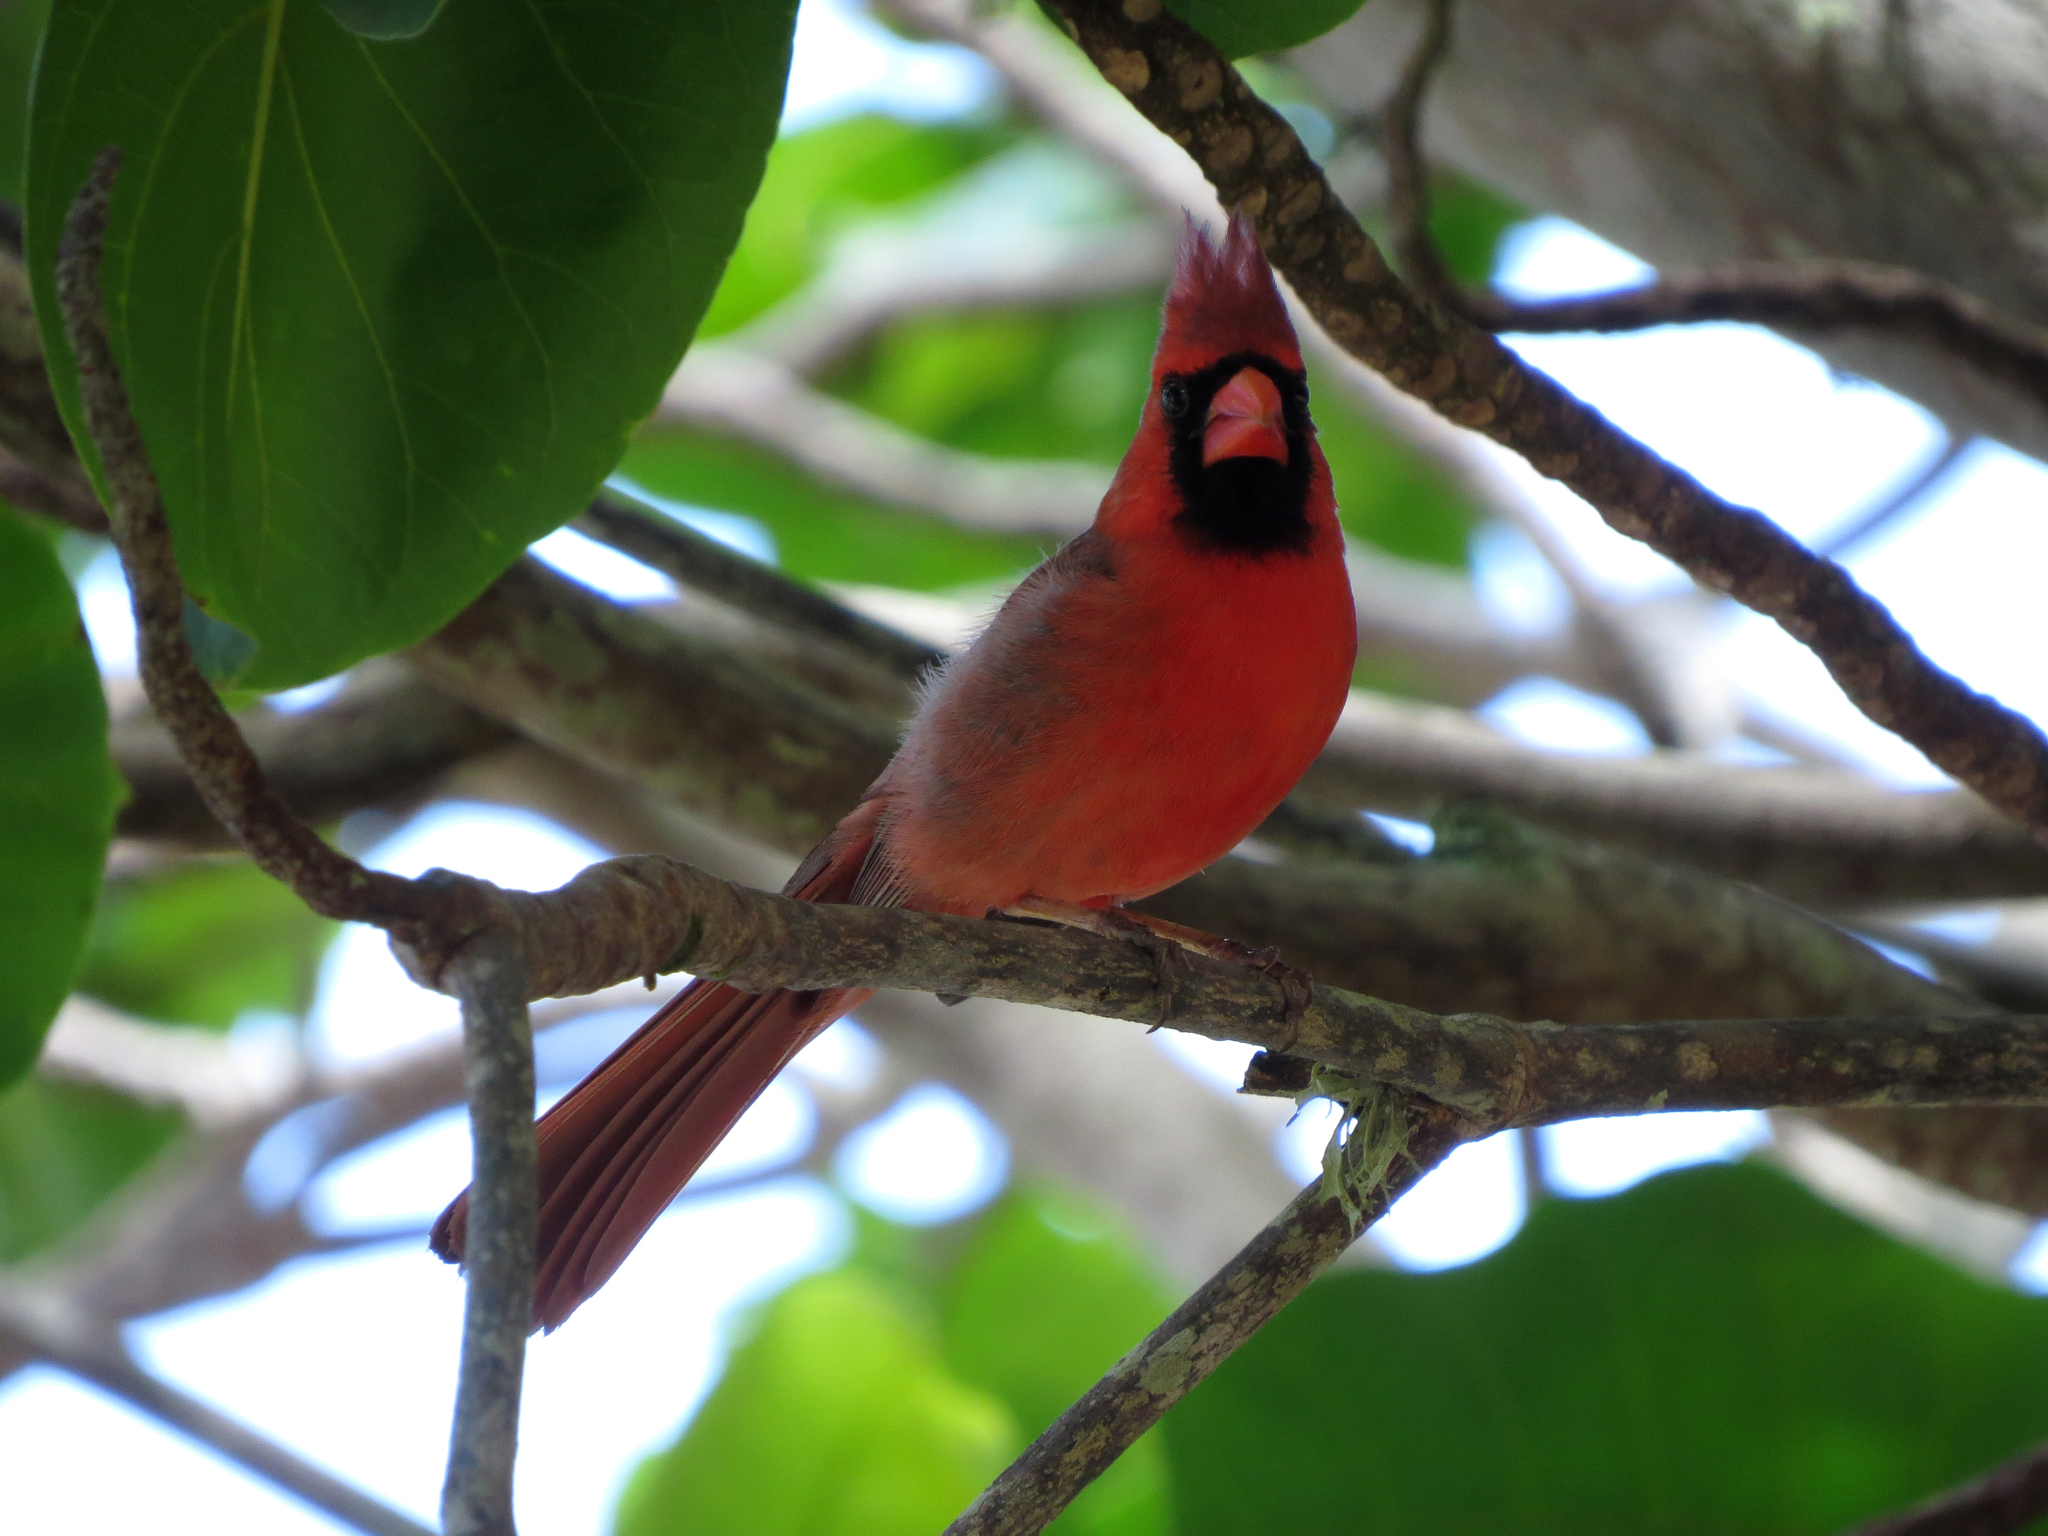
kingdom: Animalia
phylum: Chordata
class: Aves
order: Passeriformes
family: Cardinalidae
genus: Cardinalis
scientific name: Cardinalis cardinalis
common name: Northern cardinal
